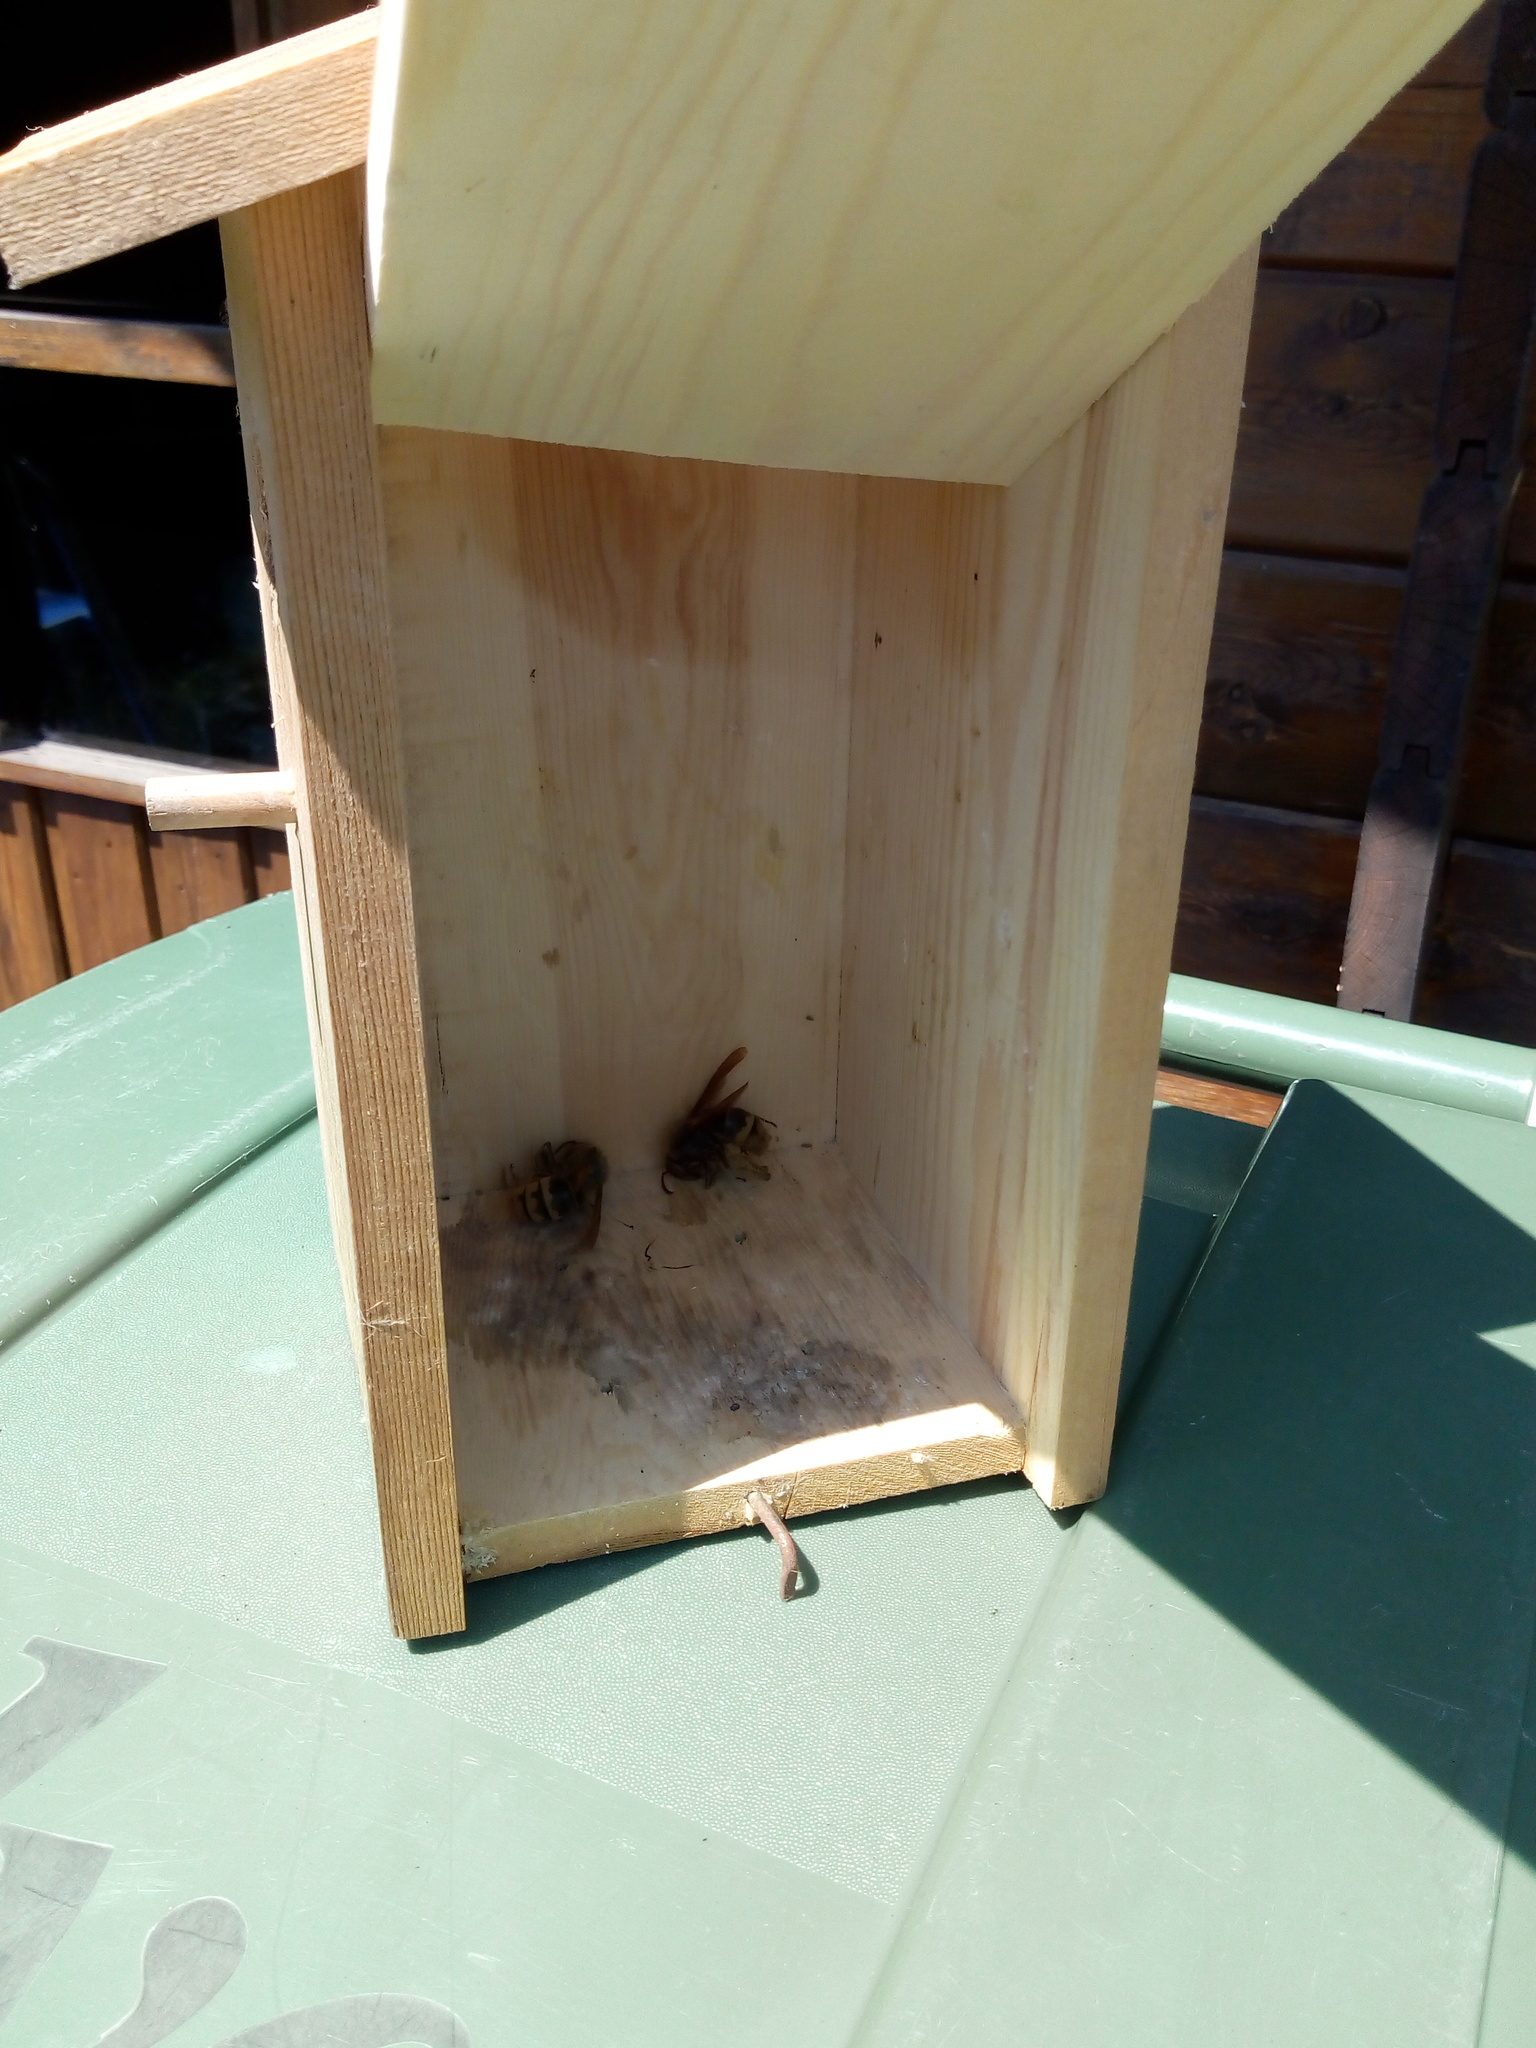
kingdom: Animalia
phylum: Arthropoda
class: Insecta
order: Hymenoptera
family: Vespidae
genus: Vespa
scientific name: Vespa crabro
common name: Hornet
